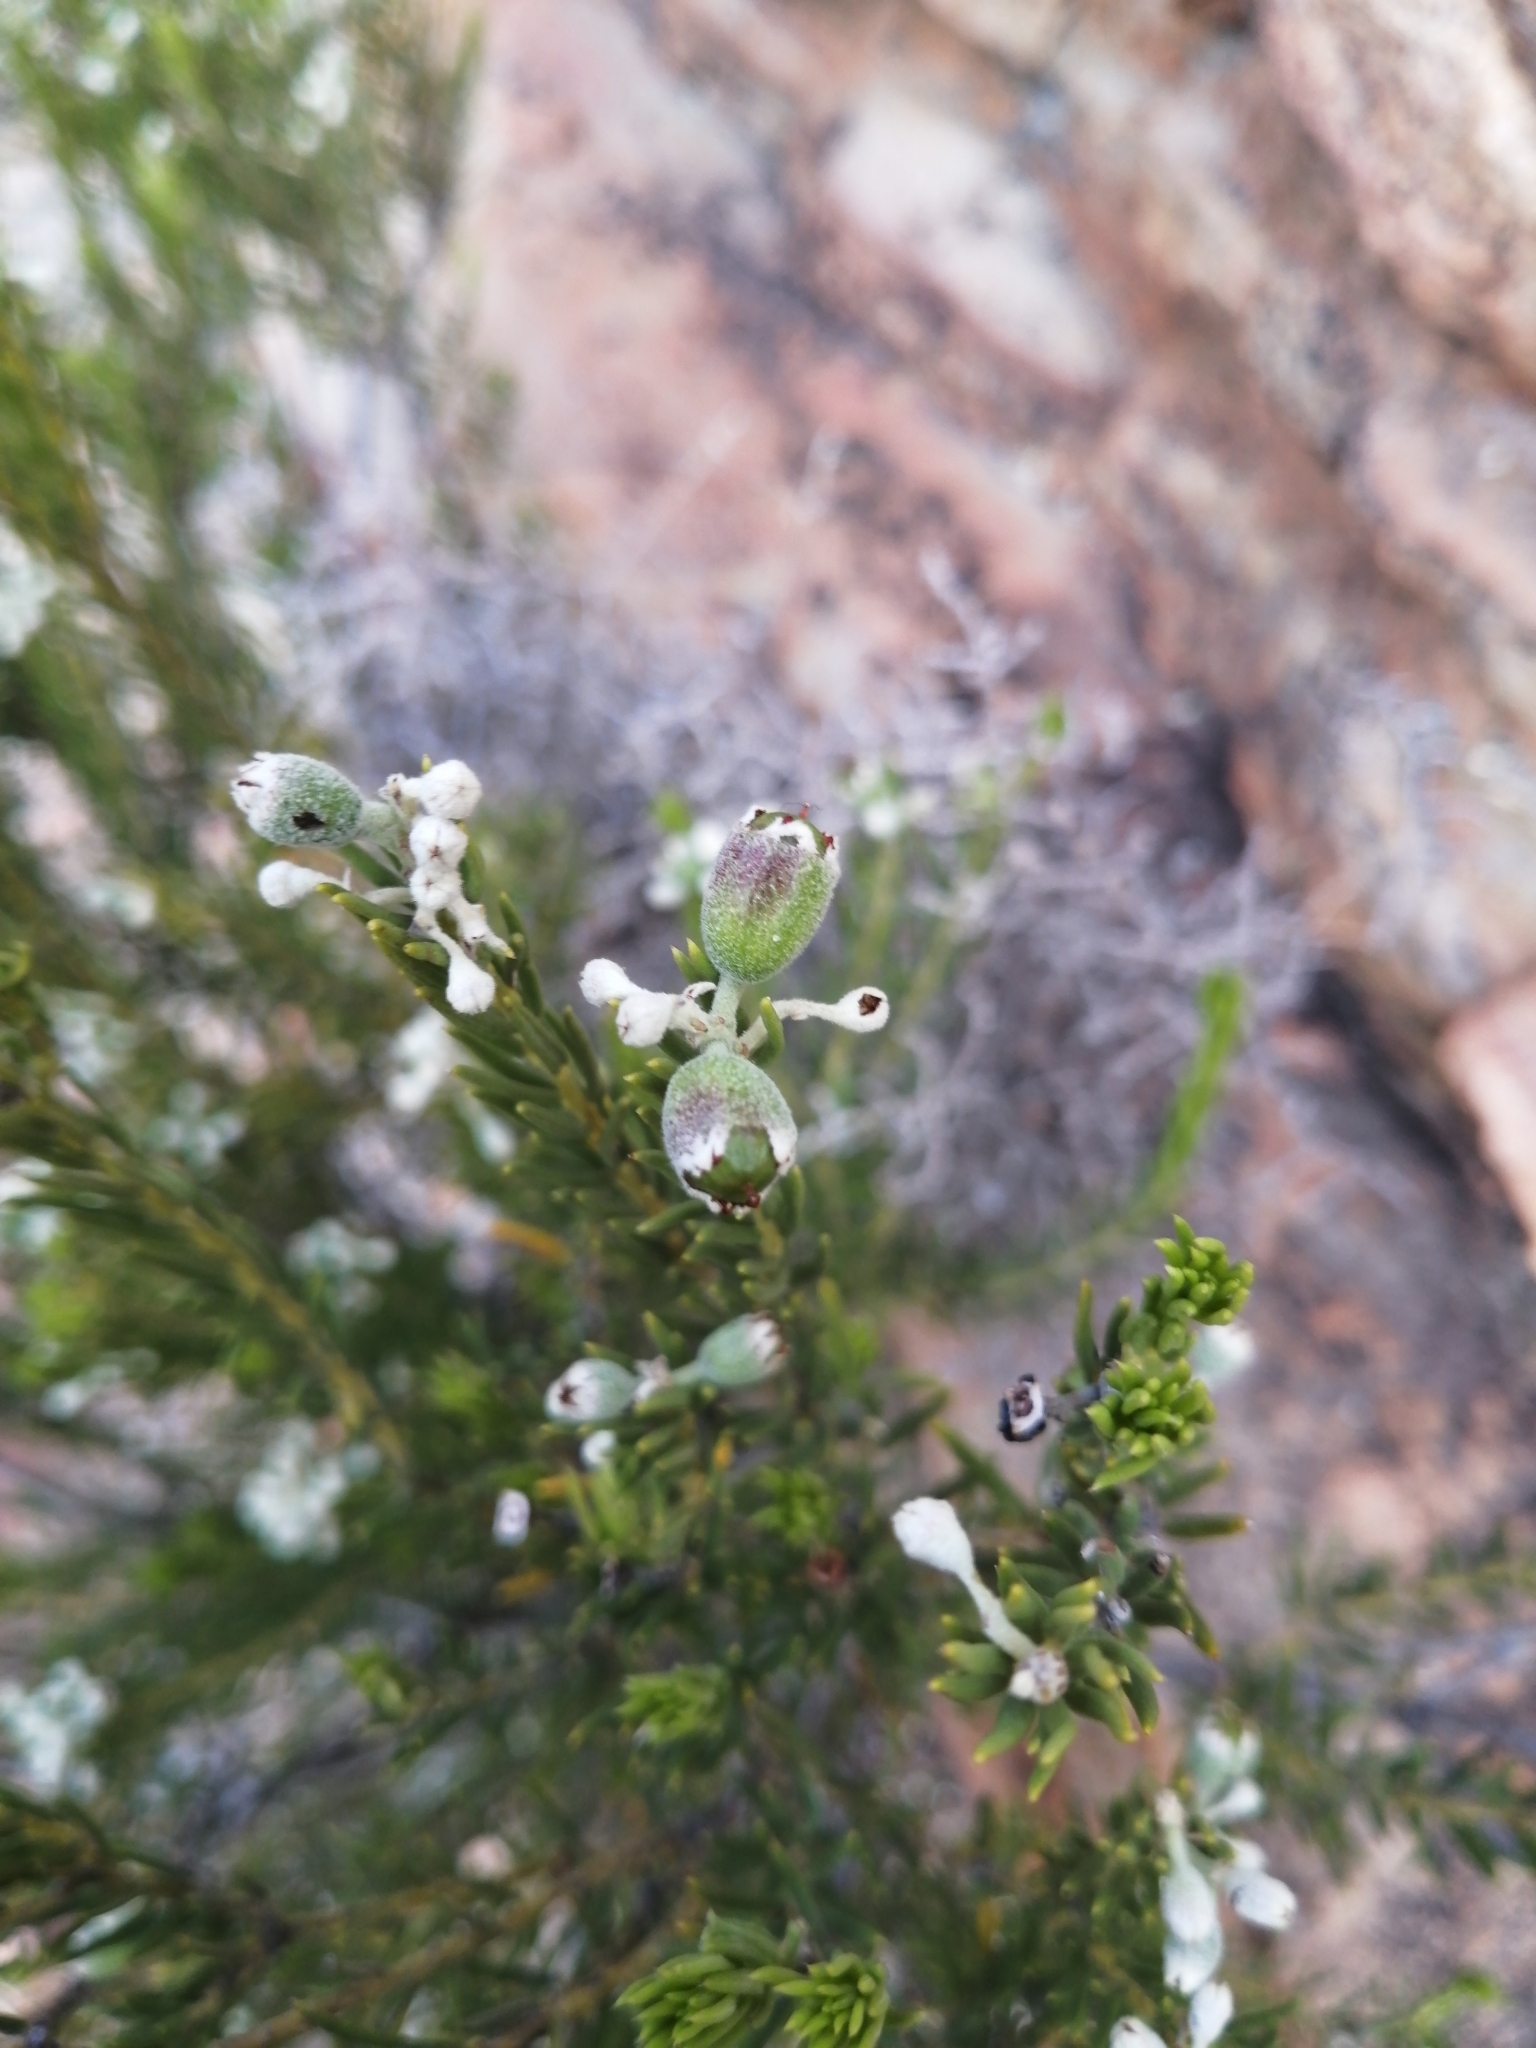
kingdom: Plantae
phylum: Tracheophyta
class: Magnoliopsida
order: Rosales
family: Rhamnaceae
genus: Phylica
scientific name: Phylica rigidifolia
